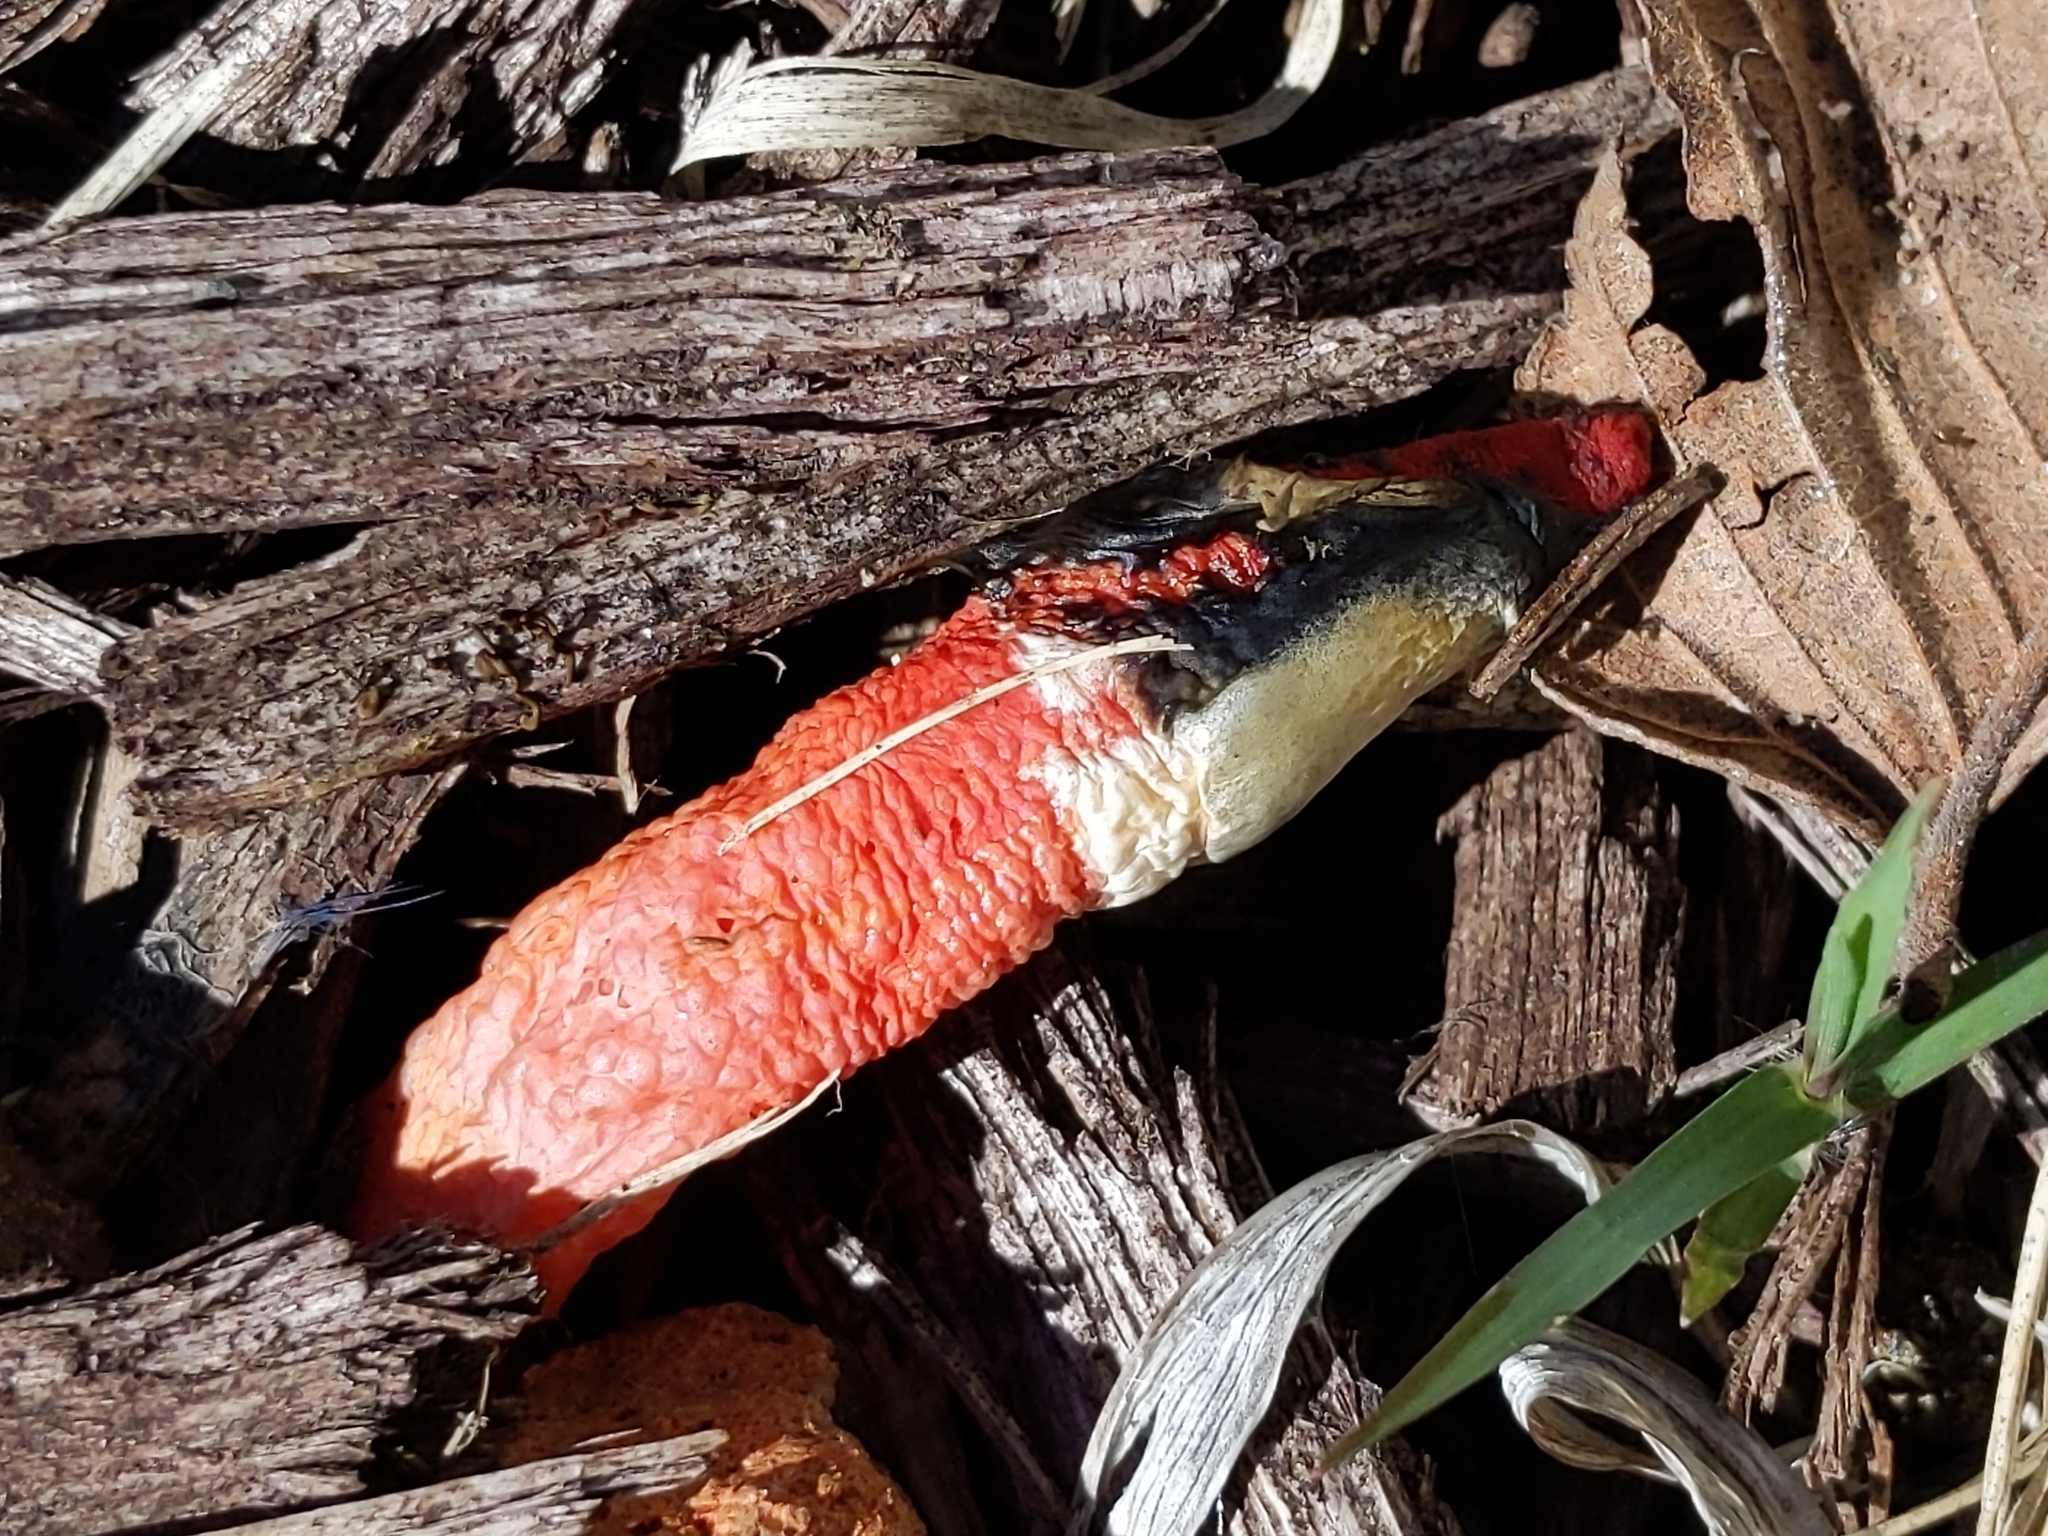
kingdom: Fungi
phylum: Basidiomycota
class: Agaricomycetes
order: Phallales
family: Phallaceae
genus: Mutinus
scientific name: Mutinus elegans
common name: Devil's dipstick
